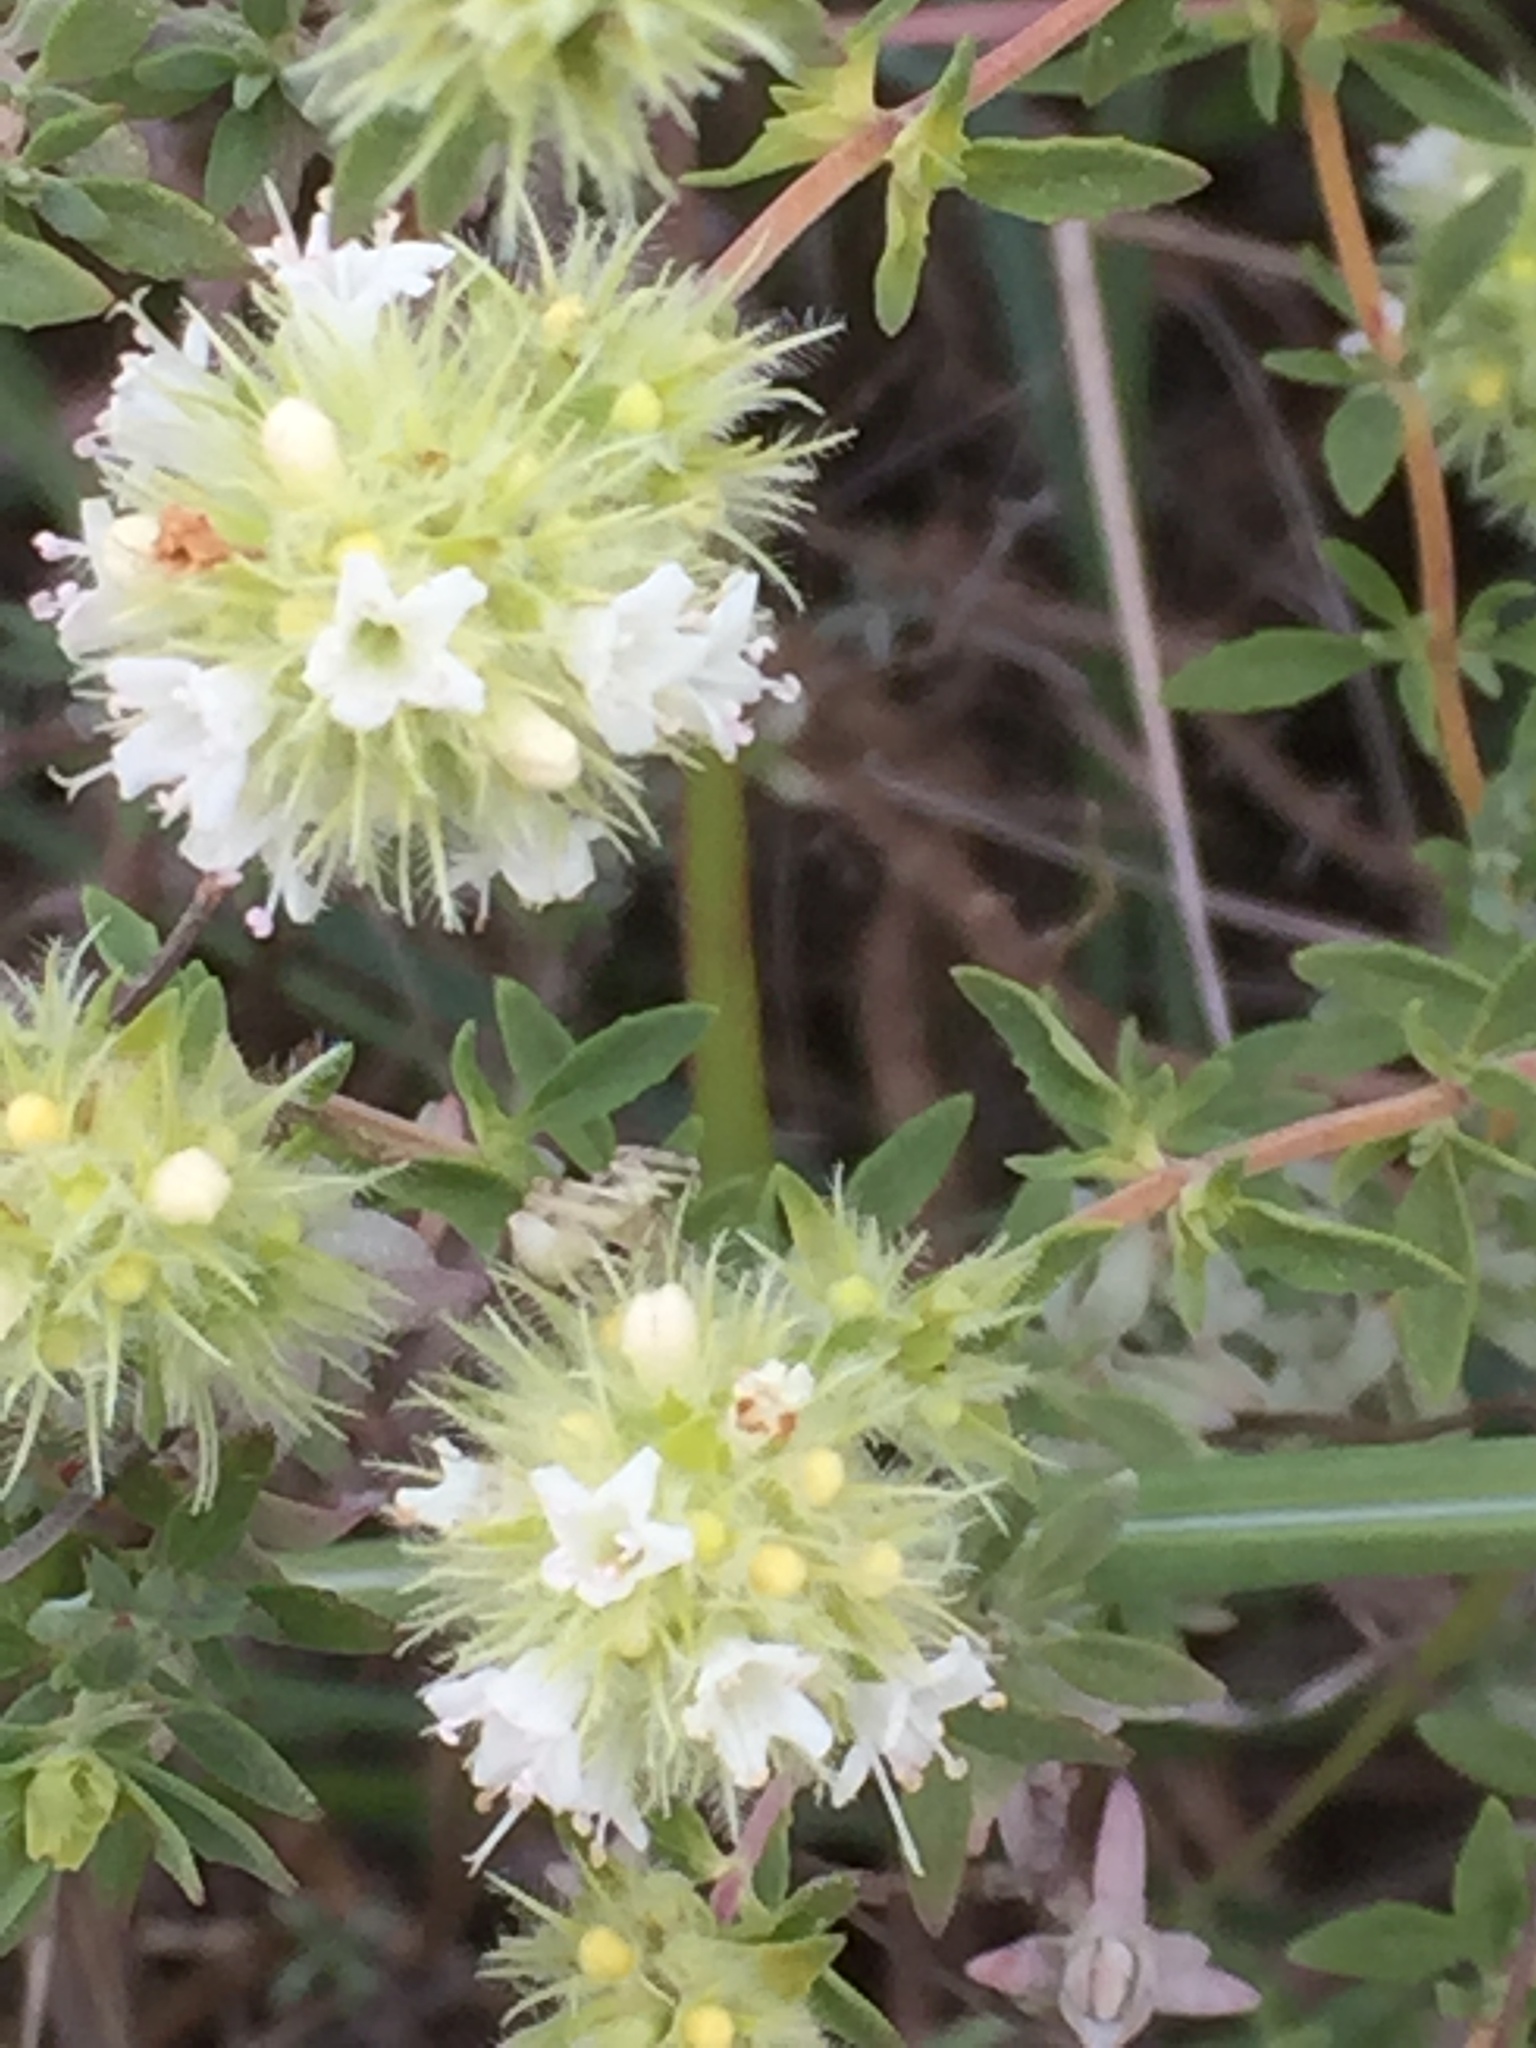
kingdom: Plantae
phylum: Tracheophyta
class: Magnoliopsida
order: Lamiales
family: Lamiaceae
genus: Thymus
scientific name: Thymus mastichina
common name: Mastic thyme
